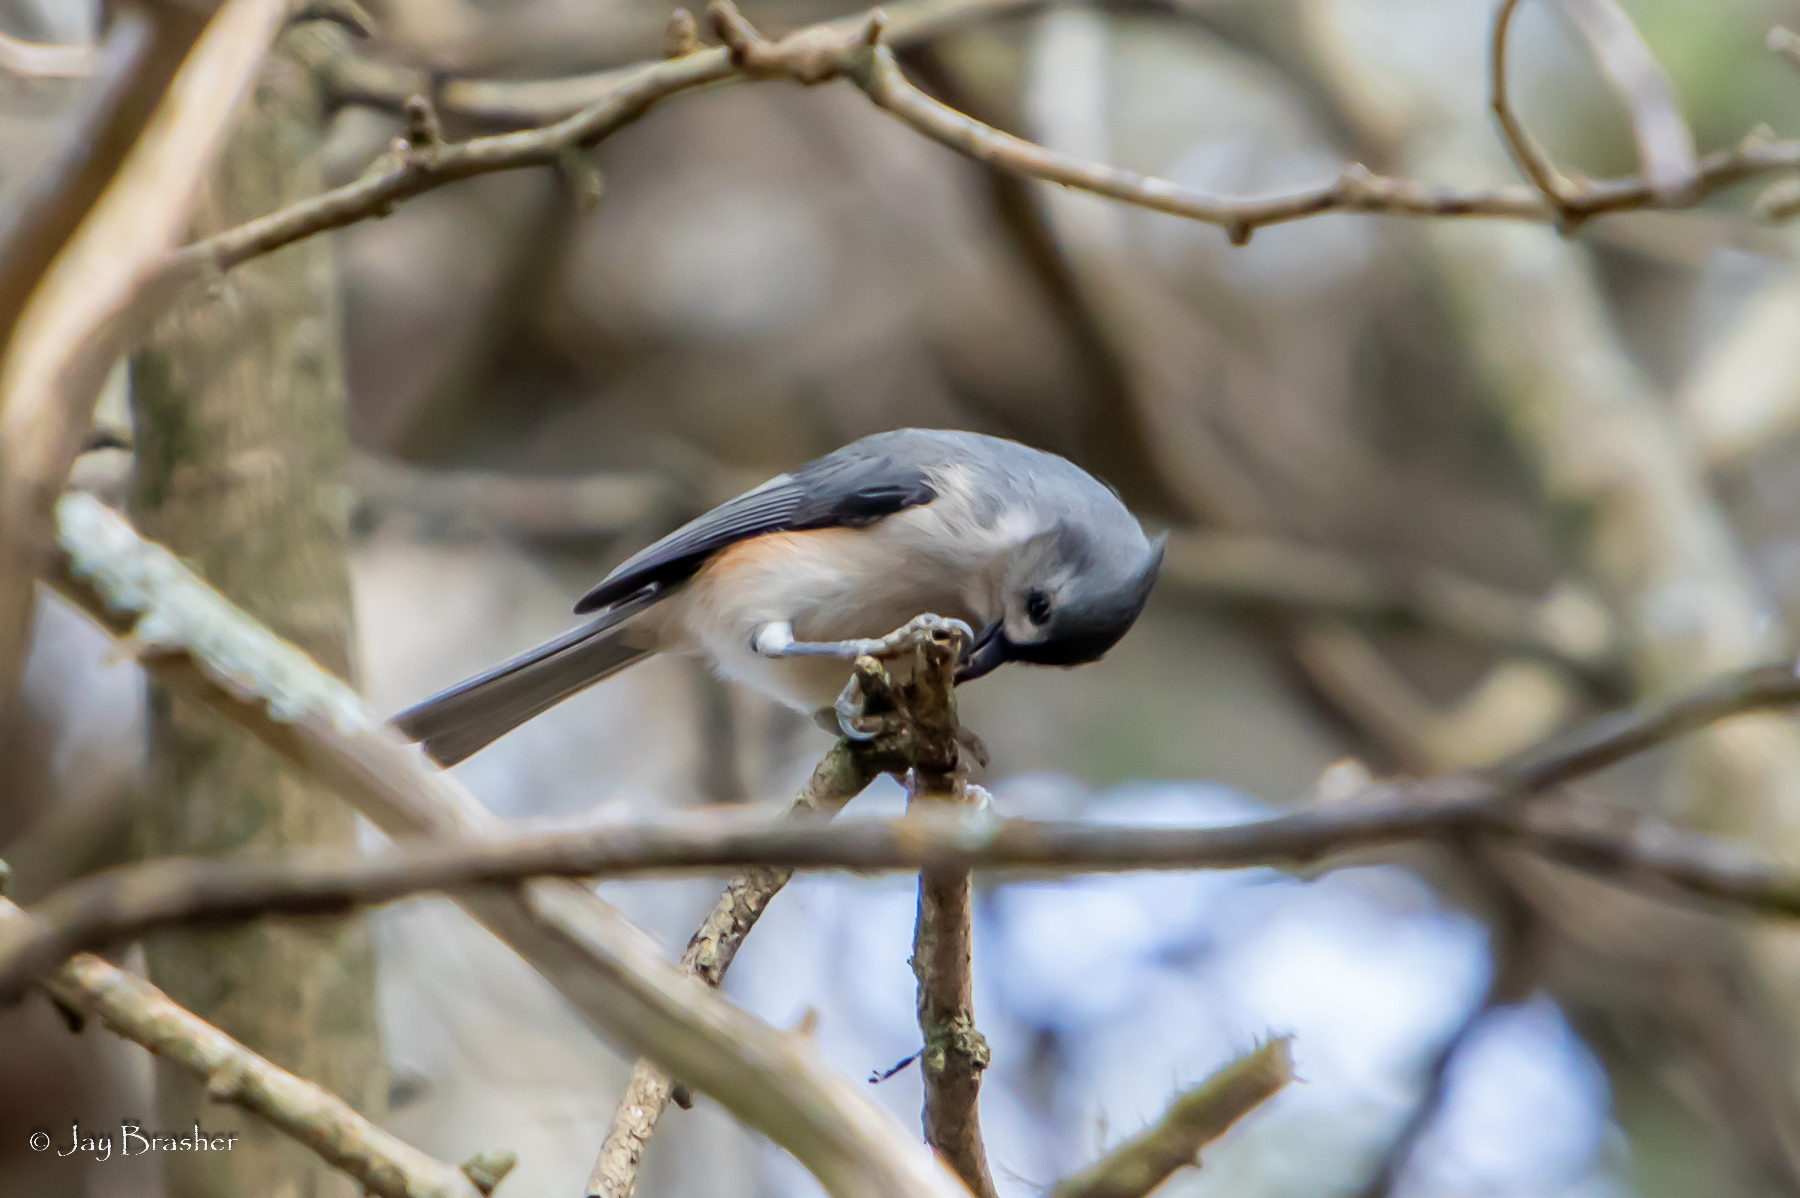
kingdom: Animalia
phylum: Chordata
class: Aves
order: Passeriformes
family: Paridae
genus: Baeolophus
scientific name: Baeolophus bicolor
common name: Tufted titmouse
